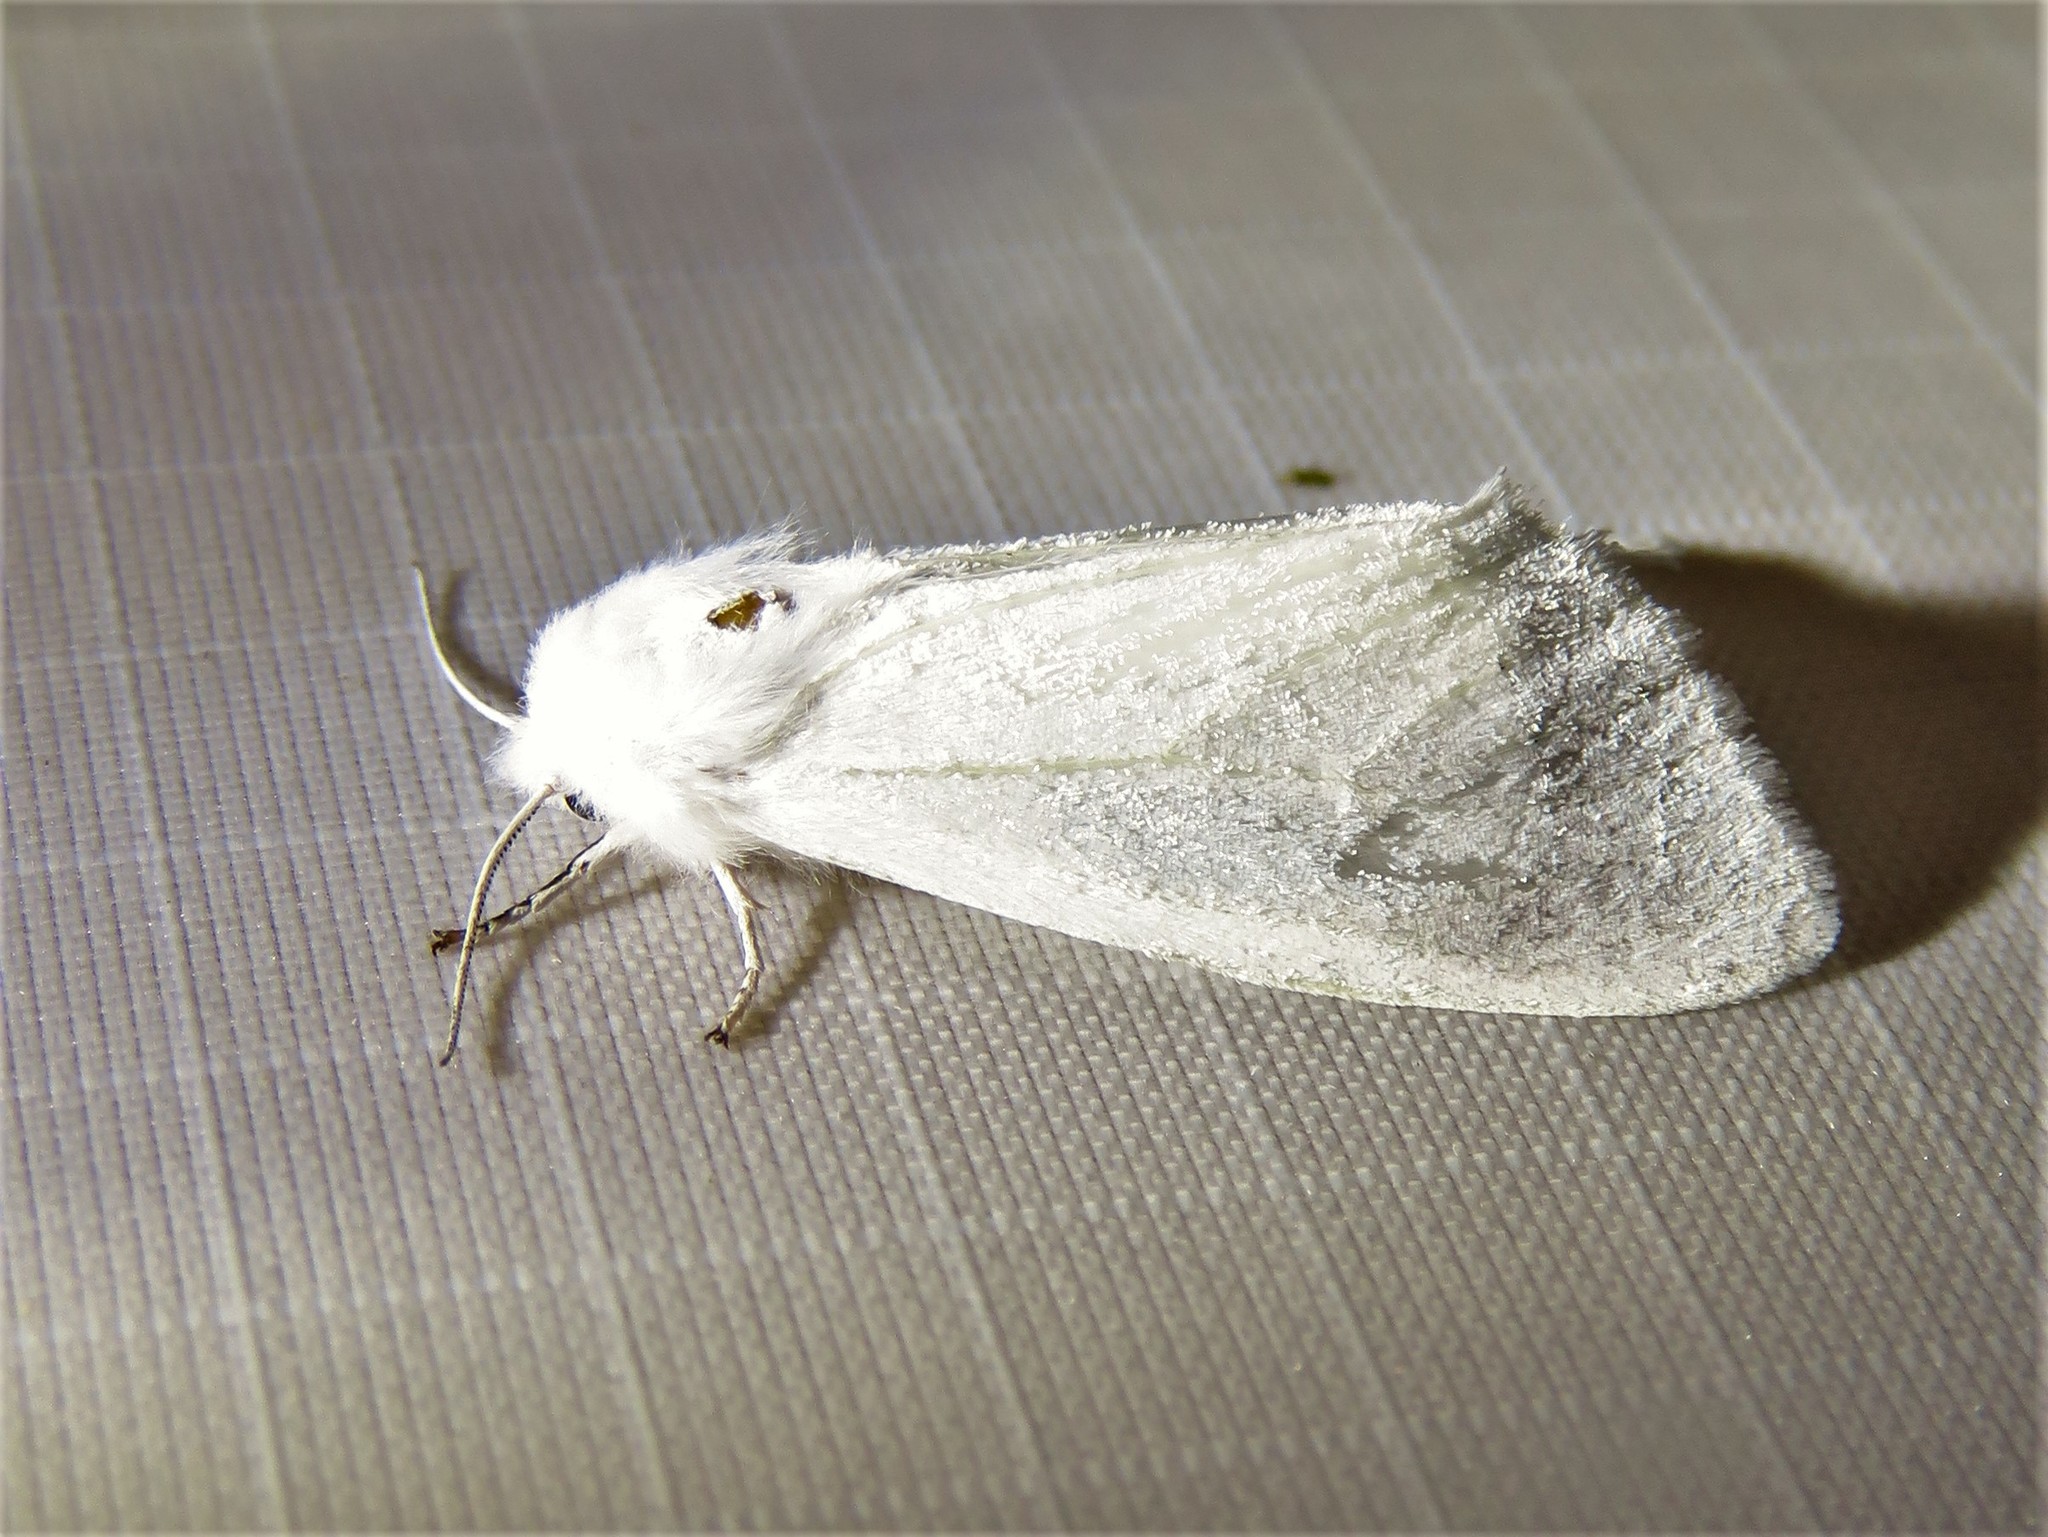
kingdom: Animalia
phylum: Arthropoda
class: Insecta
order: Lepidoptera
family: Erebidae
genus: Spilosoma
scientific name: Spilosoma virginica
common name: Virginia tiger moth
